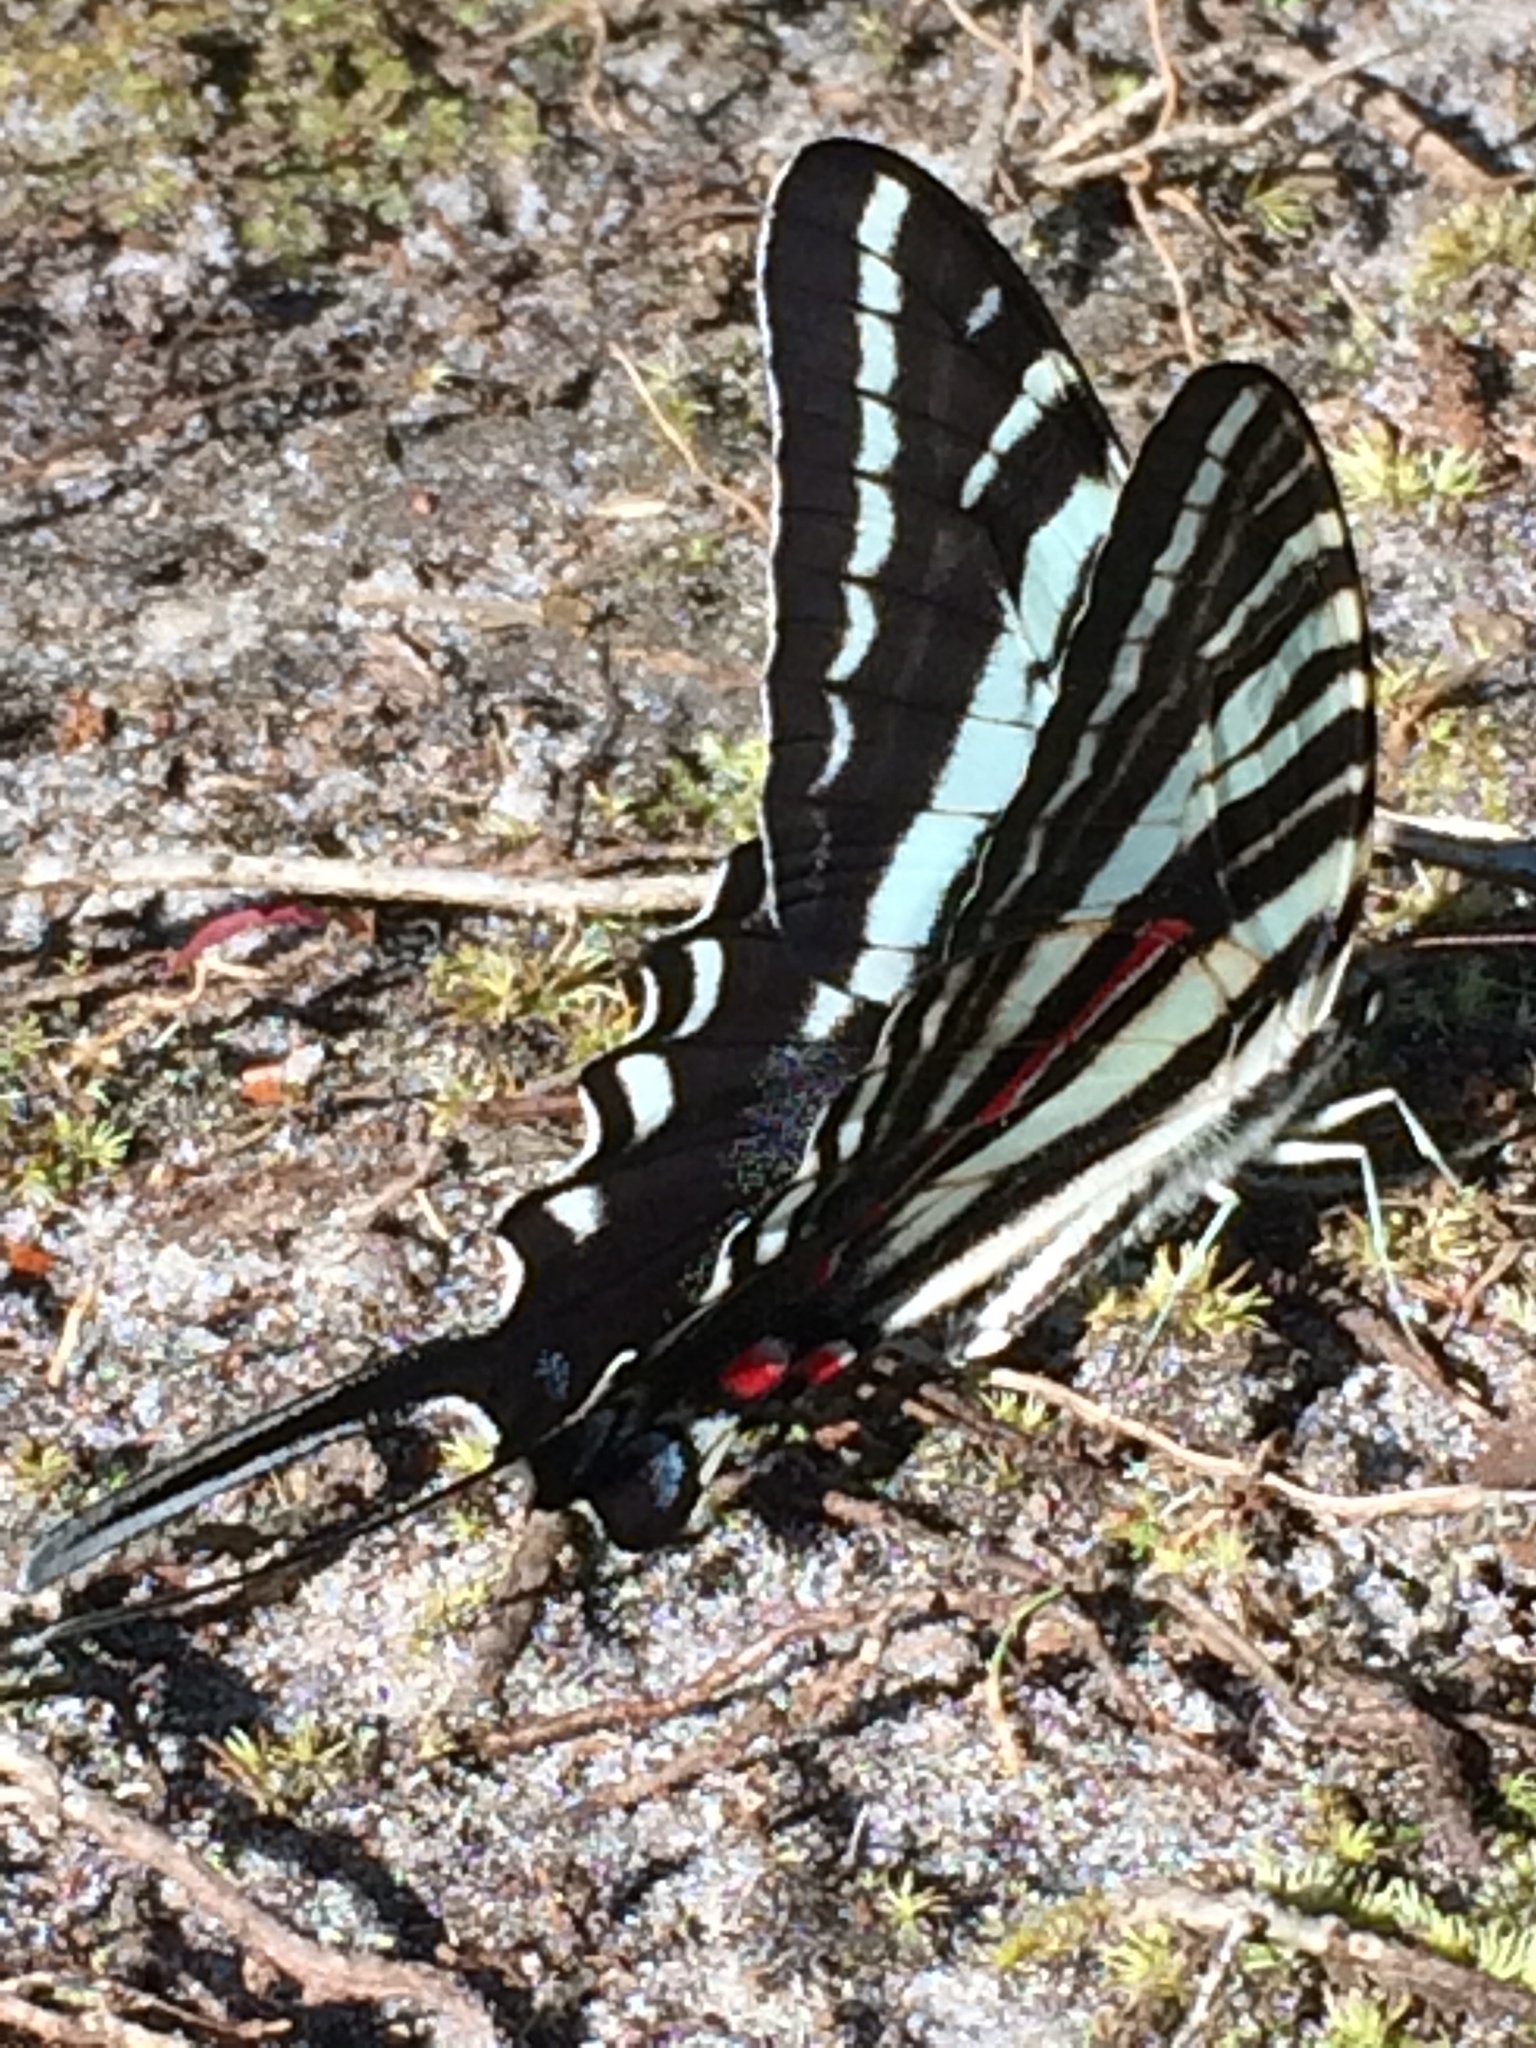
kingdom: Animalia
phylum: Arthropoda
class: Insecta
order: Lepidoptera
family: Papilionidae
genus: Protographium
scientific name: Protographium marcellus
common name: Zebra swallowtail
